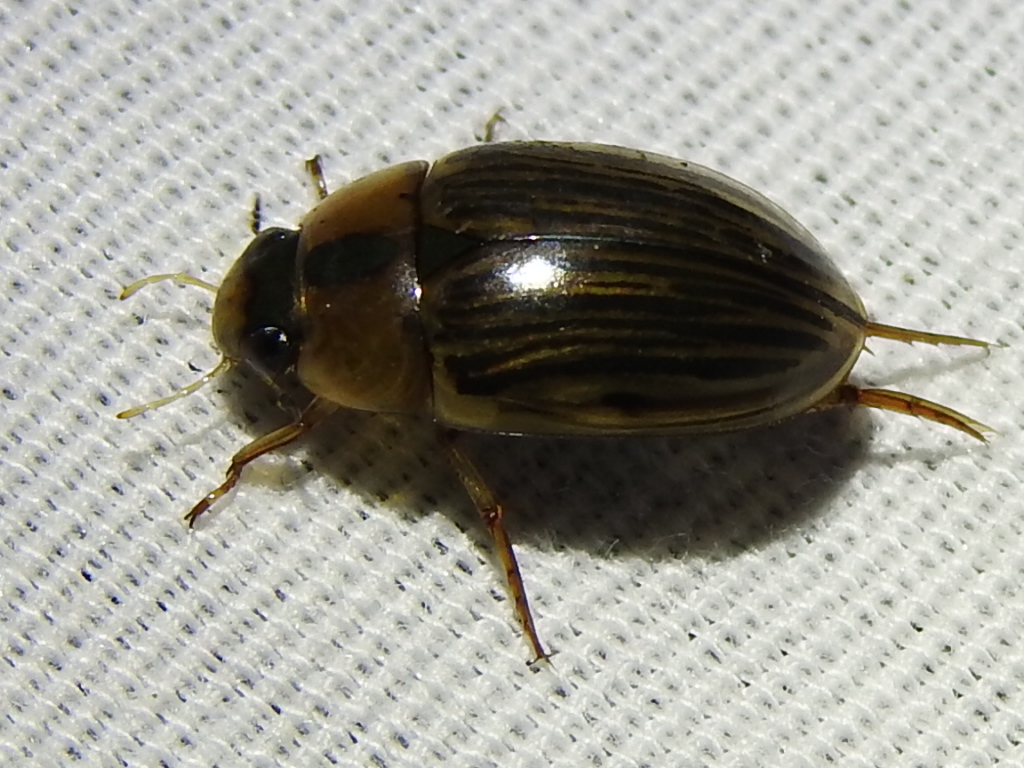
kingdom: Animalia
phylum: Arthropoda
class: Insecta
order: Coleoptera
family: Hydrophilidae
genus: Tropisternus
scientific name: Tropisternus collaris
